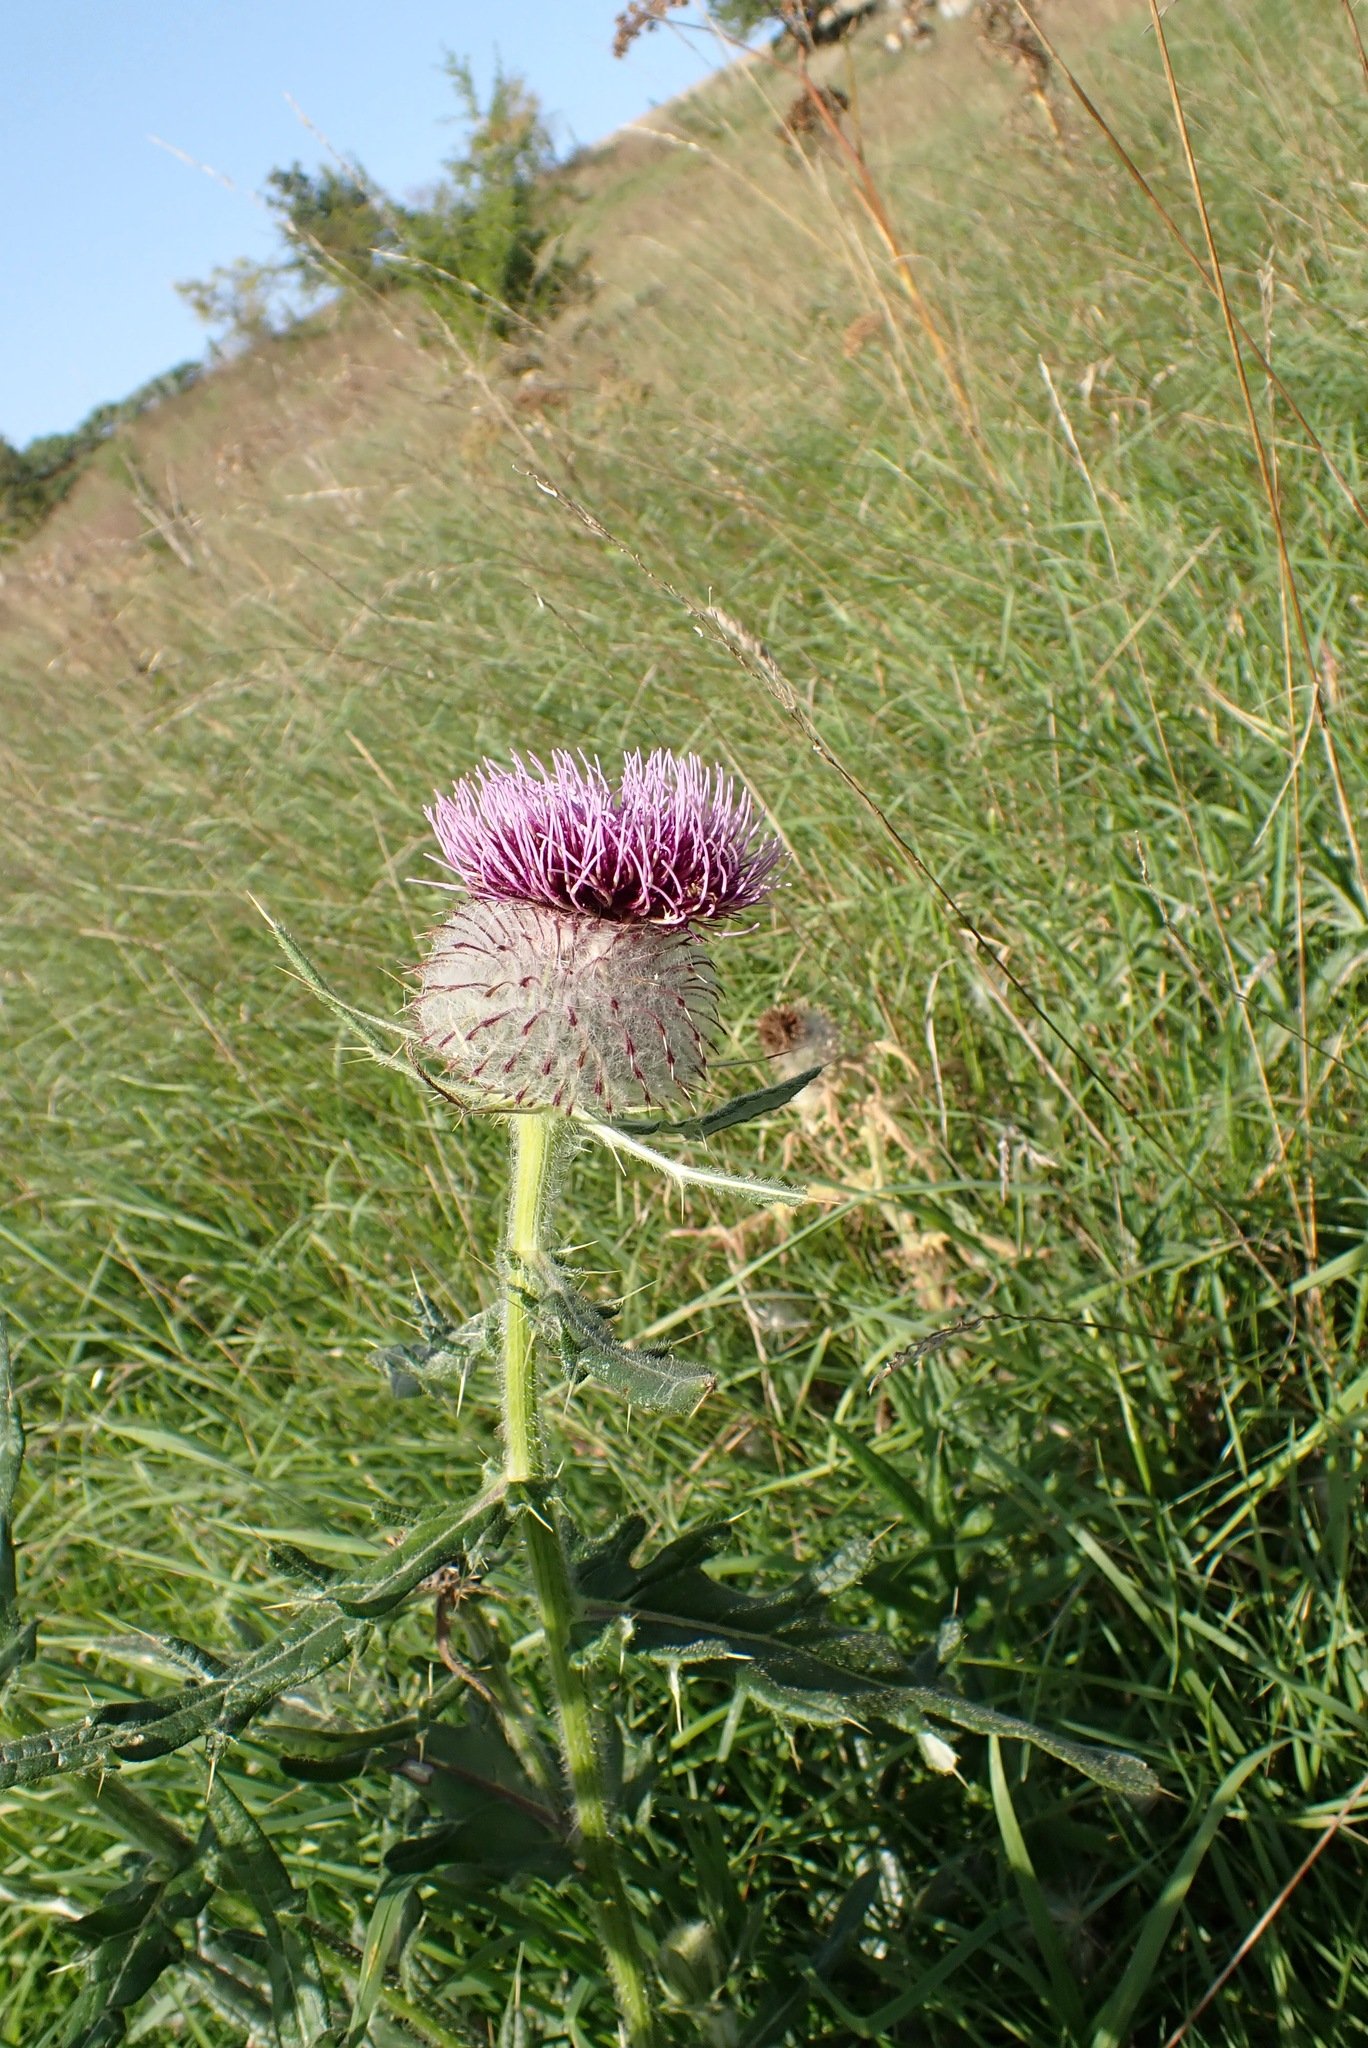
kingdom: Plantae
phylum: Tracheophyta
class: Magnoliopsida
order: Asterales
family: Asteraceae
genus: Lophiolepis
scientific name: Lophiolepis eriophora
